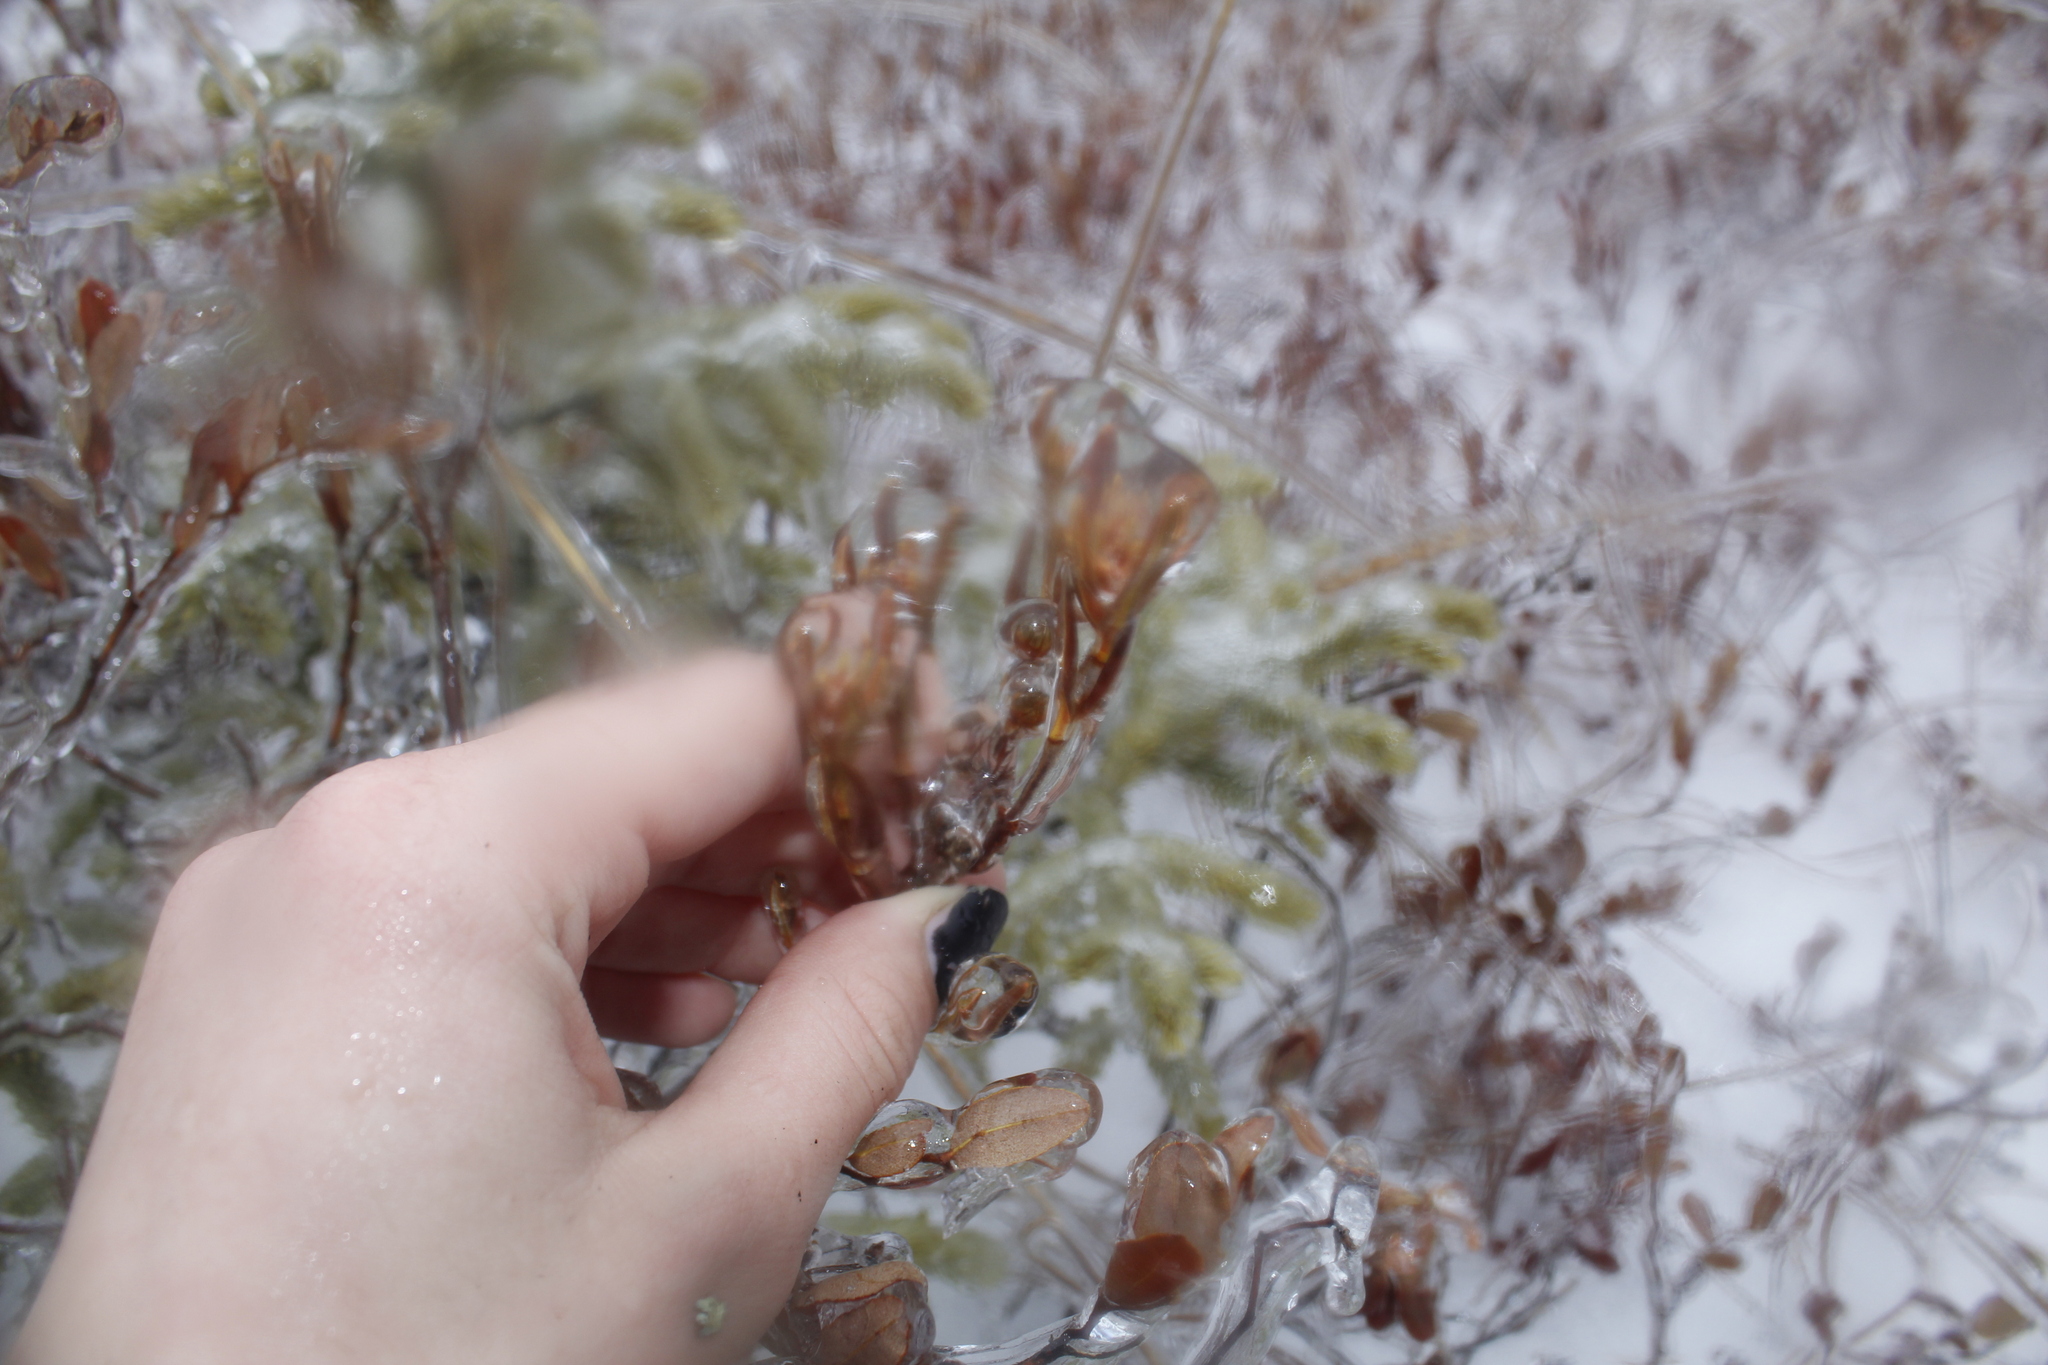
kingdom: Plantae
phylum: Tracheophyta
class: Magnoliopsida
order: Ericales
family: Ericaceae
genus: Kalmia
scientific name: Kalmia polifolia
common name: Bog-laurel
